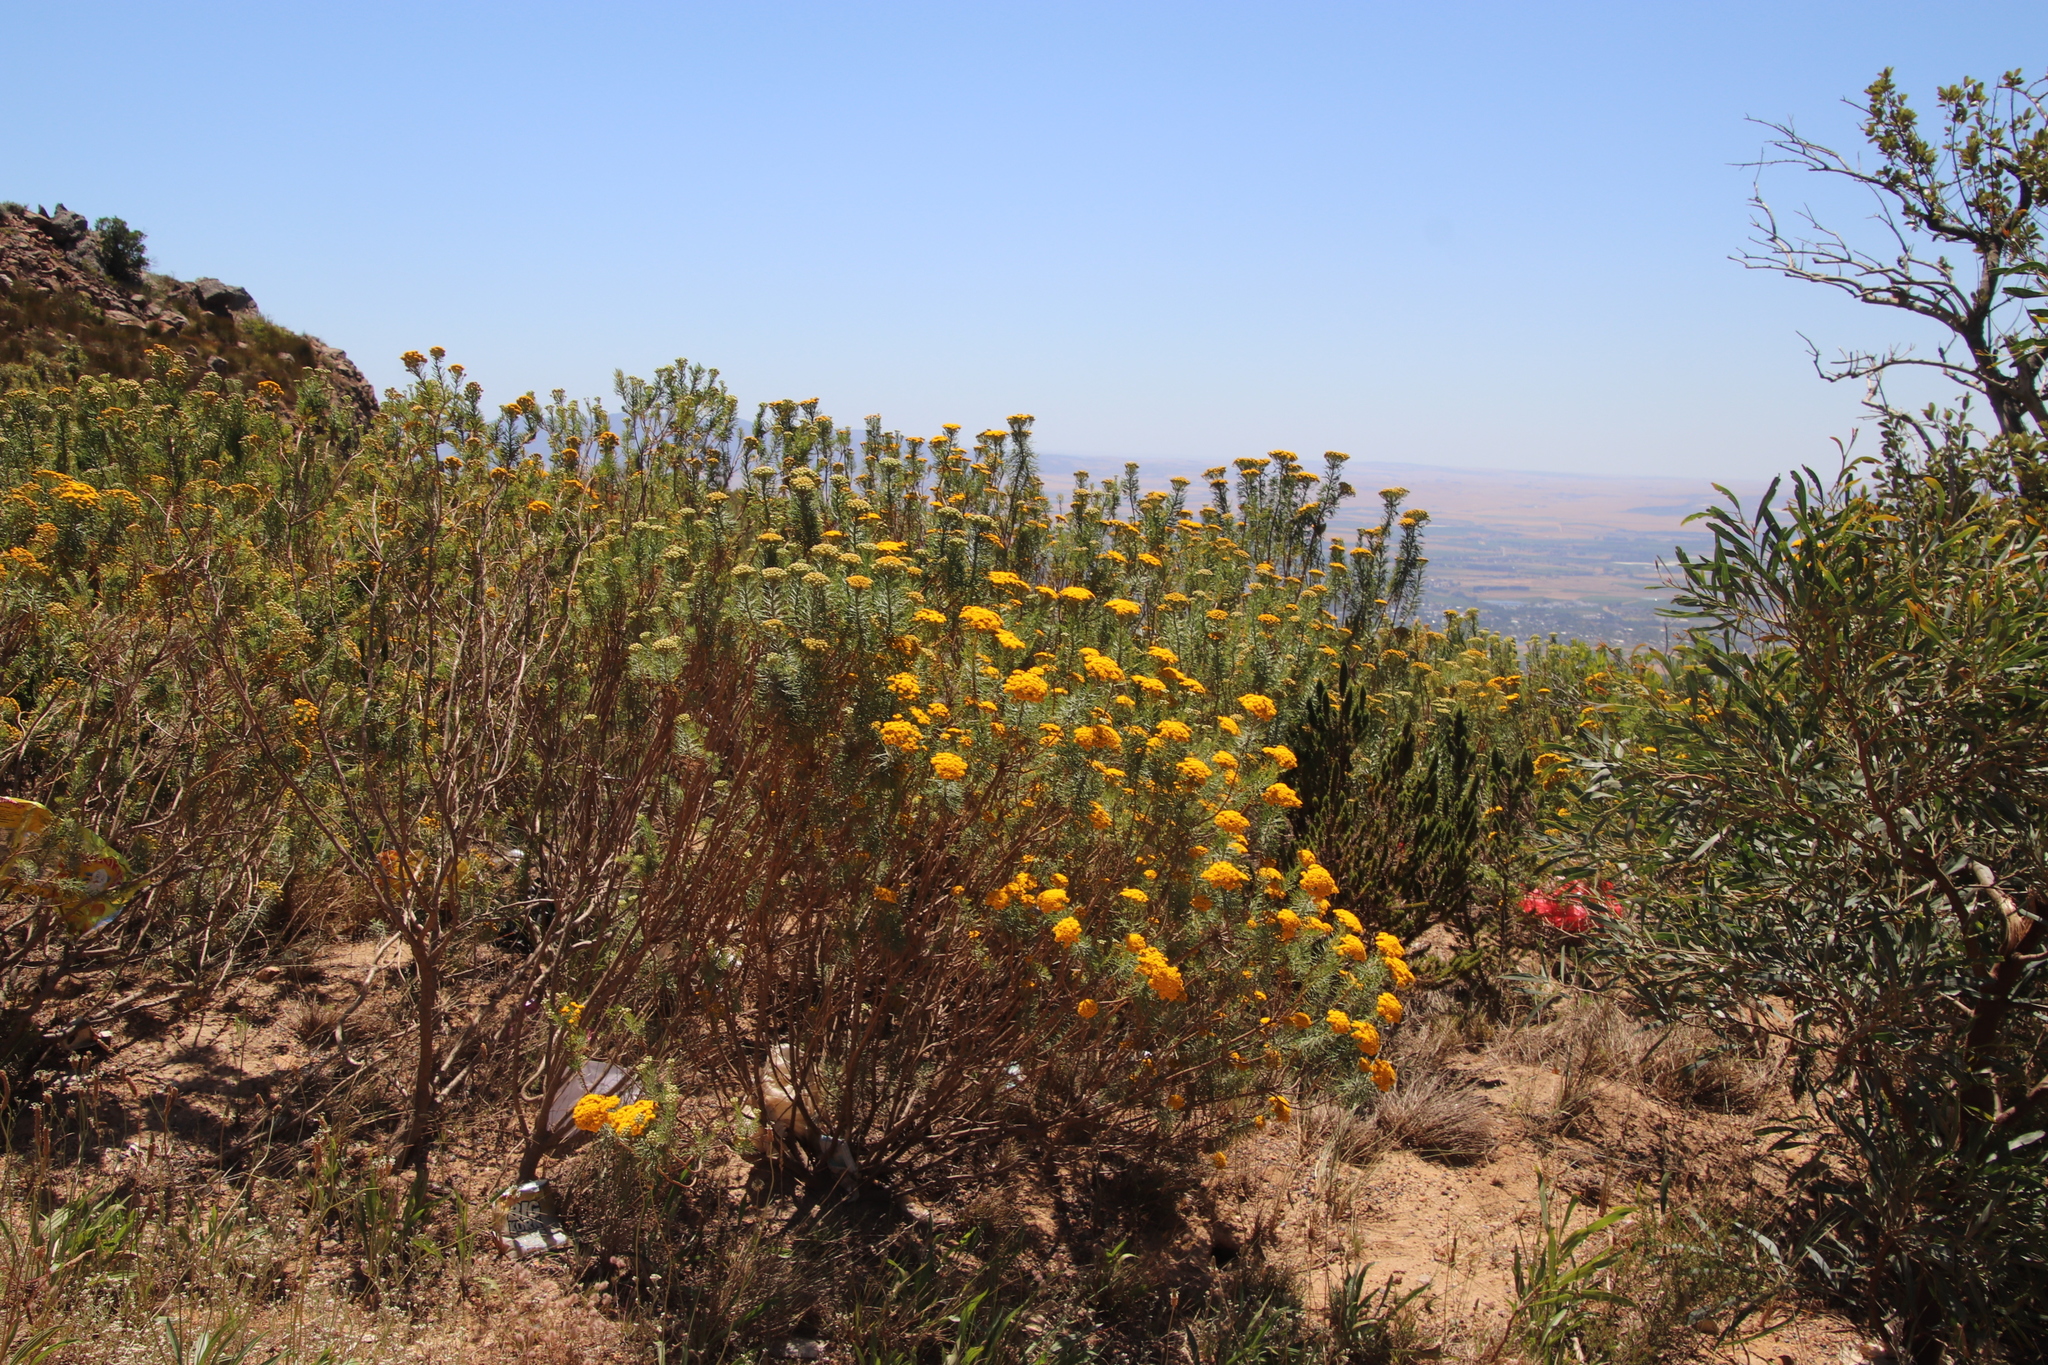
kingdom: Plantae
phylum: Tracheophyta
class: Magnoliopsida
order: Asterales
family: Asteraceae
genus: Athanasia
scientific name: Athanasia crithmifolia
